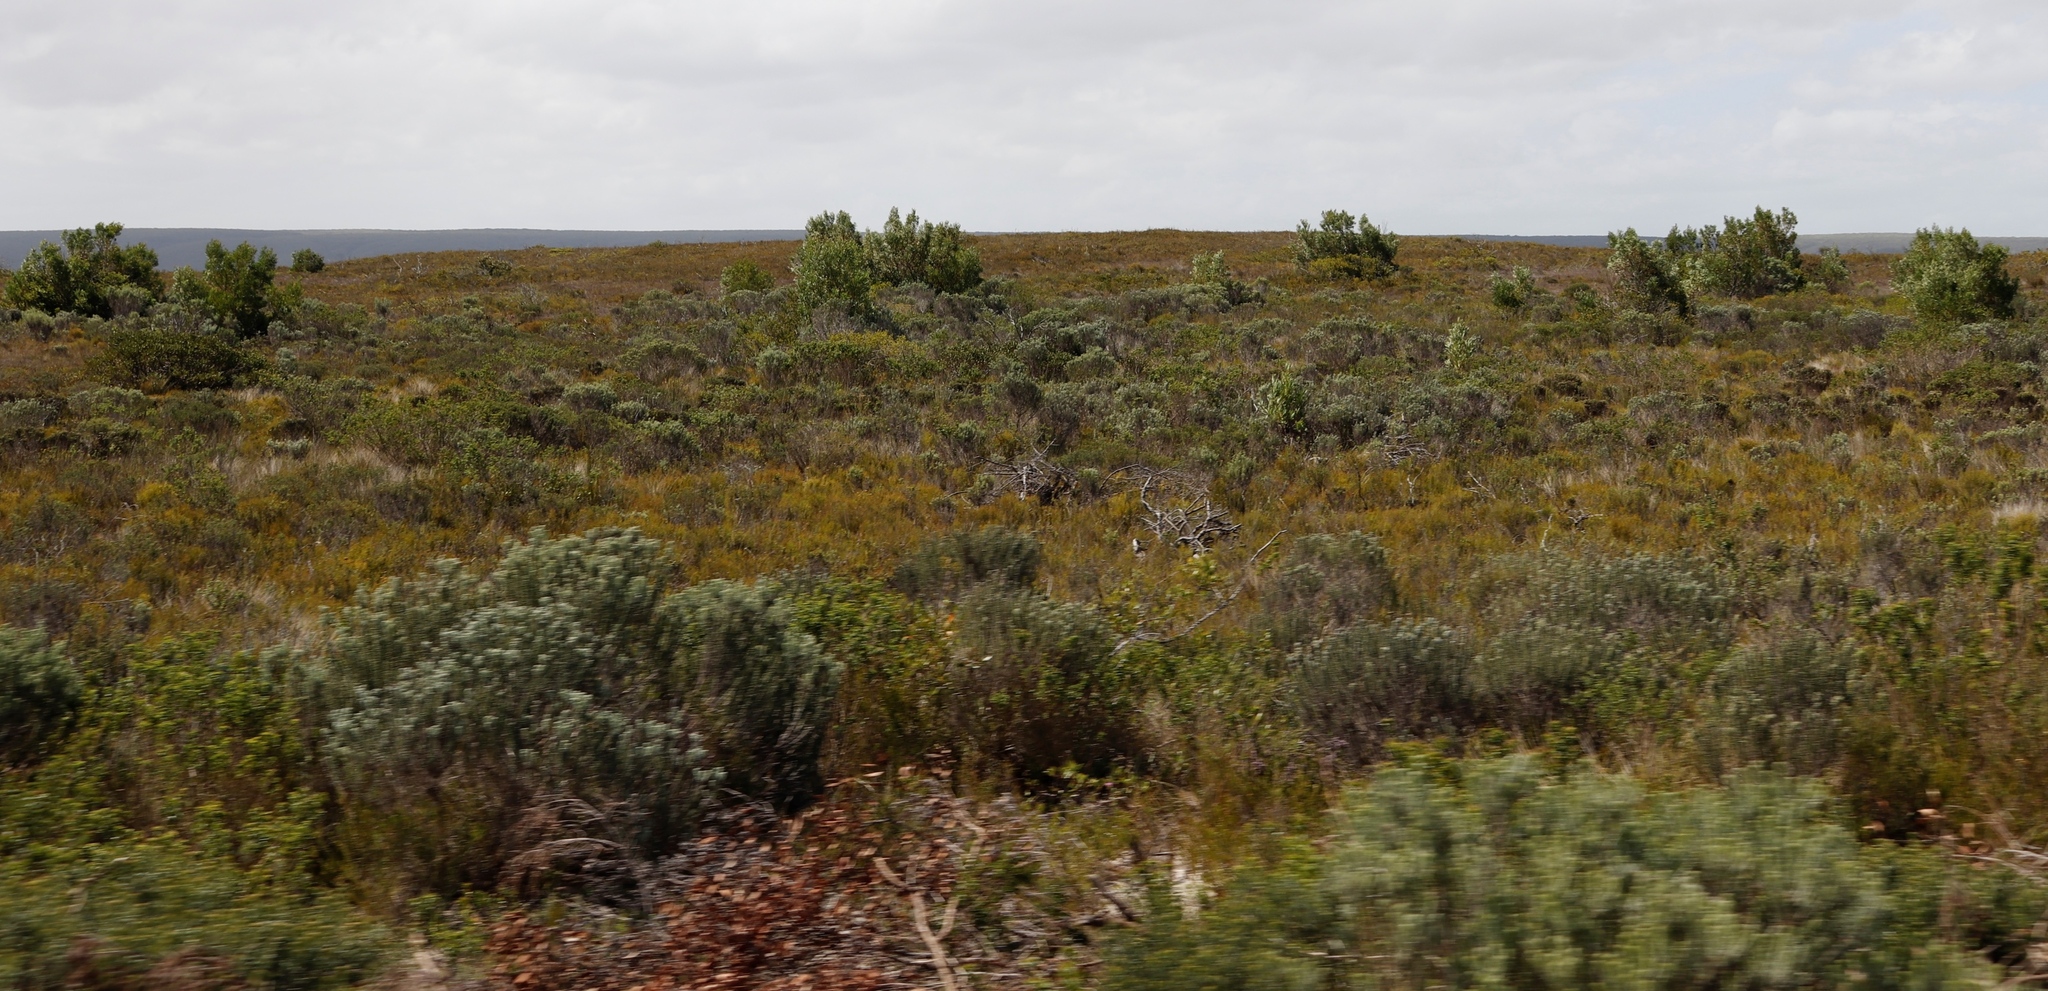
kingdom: Plantae
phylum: Tracheophyta
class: Magnoliopsida
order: Fabales
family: Fabaceae
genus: Acacia
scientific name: Acacia cyclops
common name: Coastal wattle
